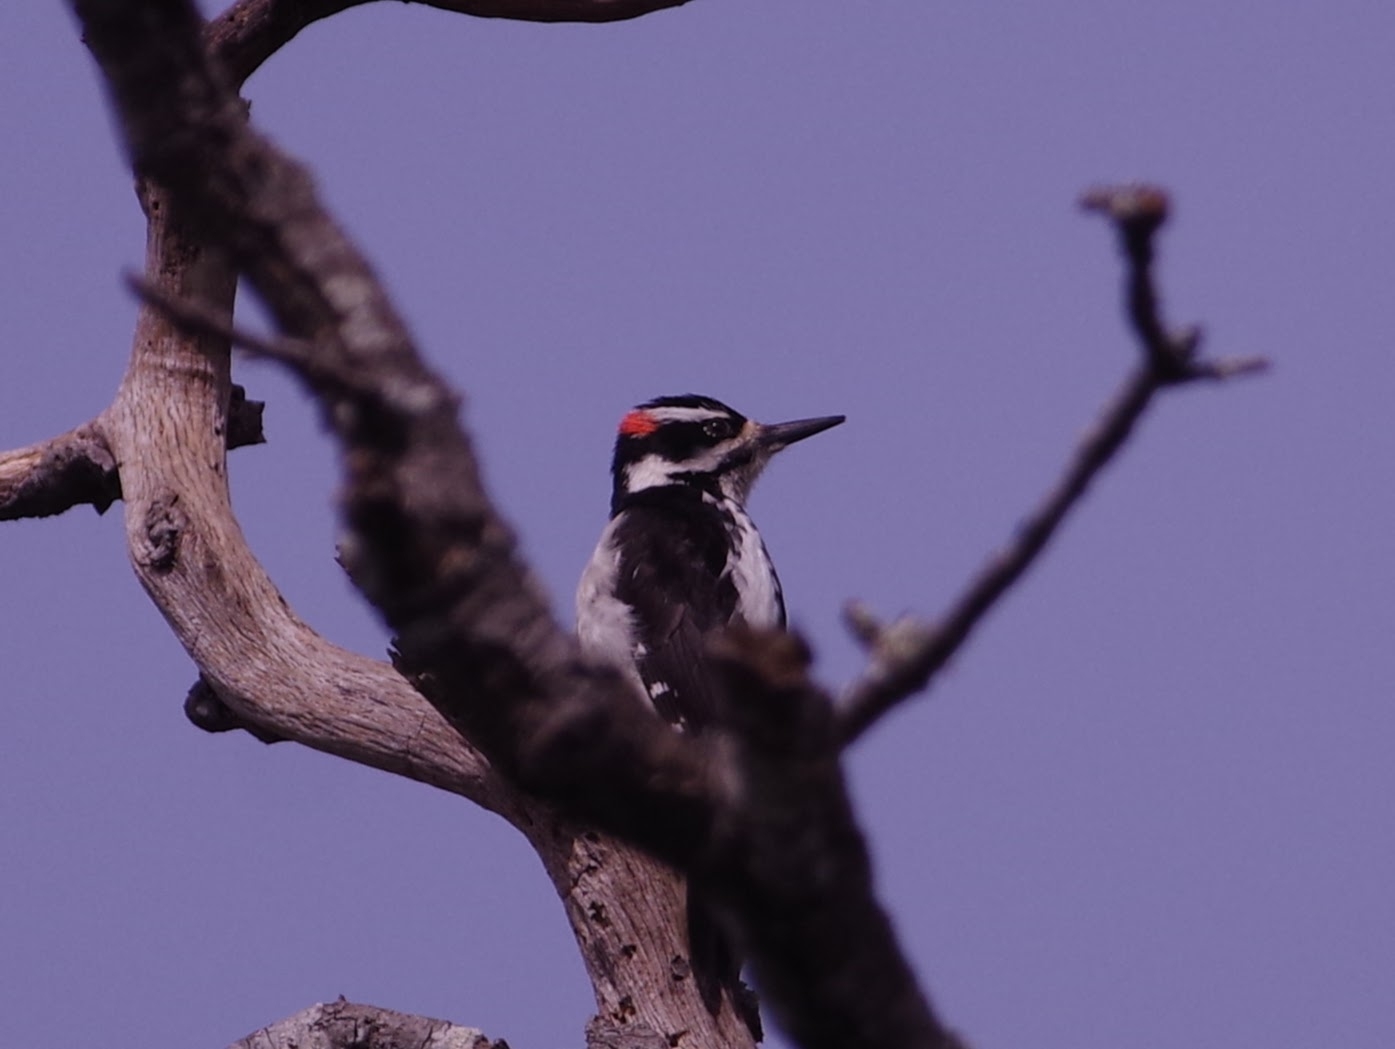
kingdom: Animalia
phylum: Chordata
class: Aves
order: Piciformes
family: Picidae
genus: Leuconotopicus
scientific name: Leuconotopicus villosus
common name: Hairy woodpecker
